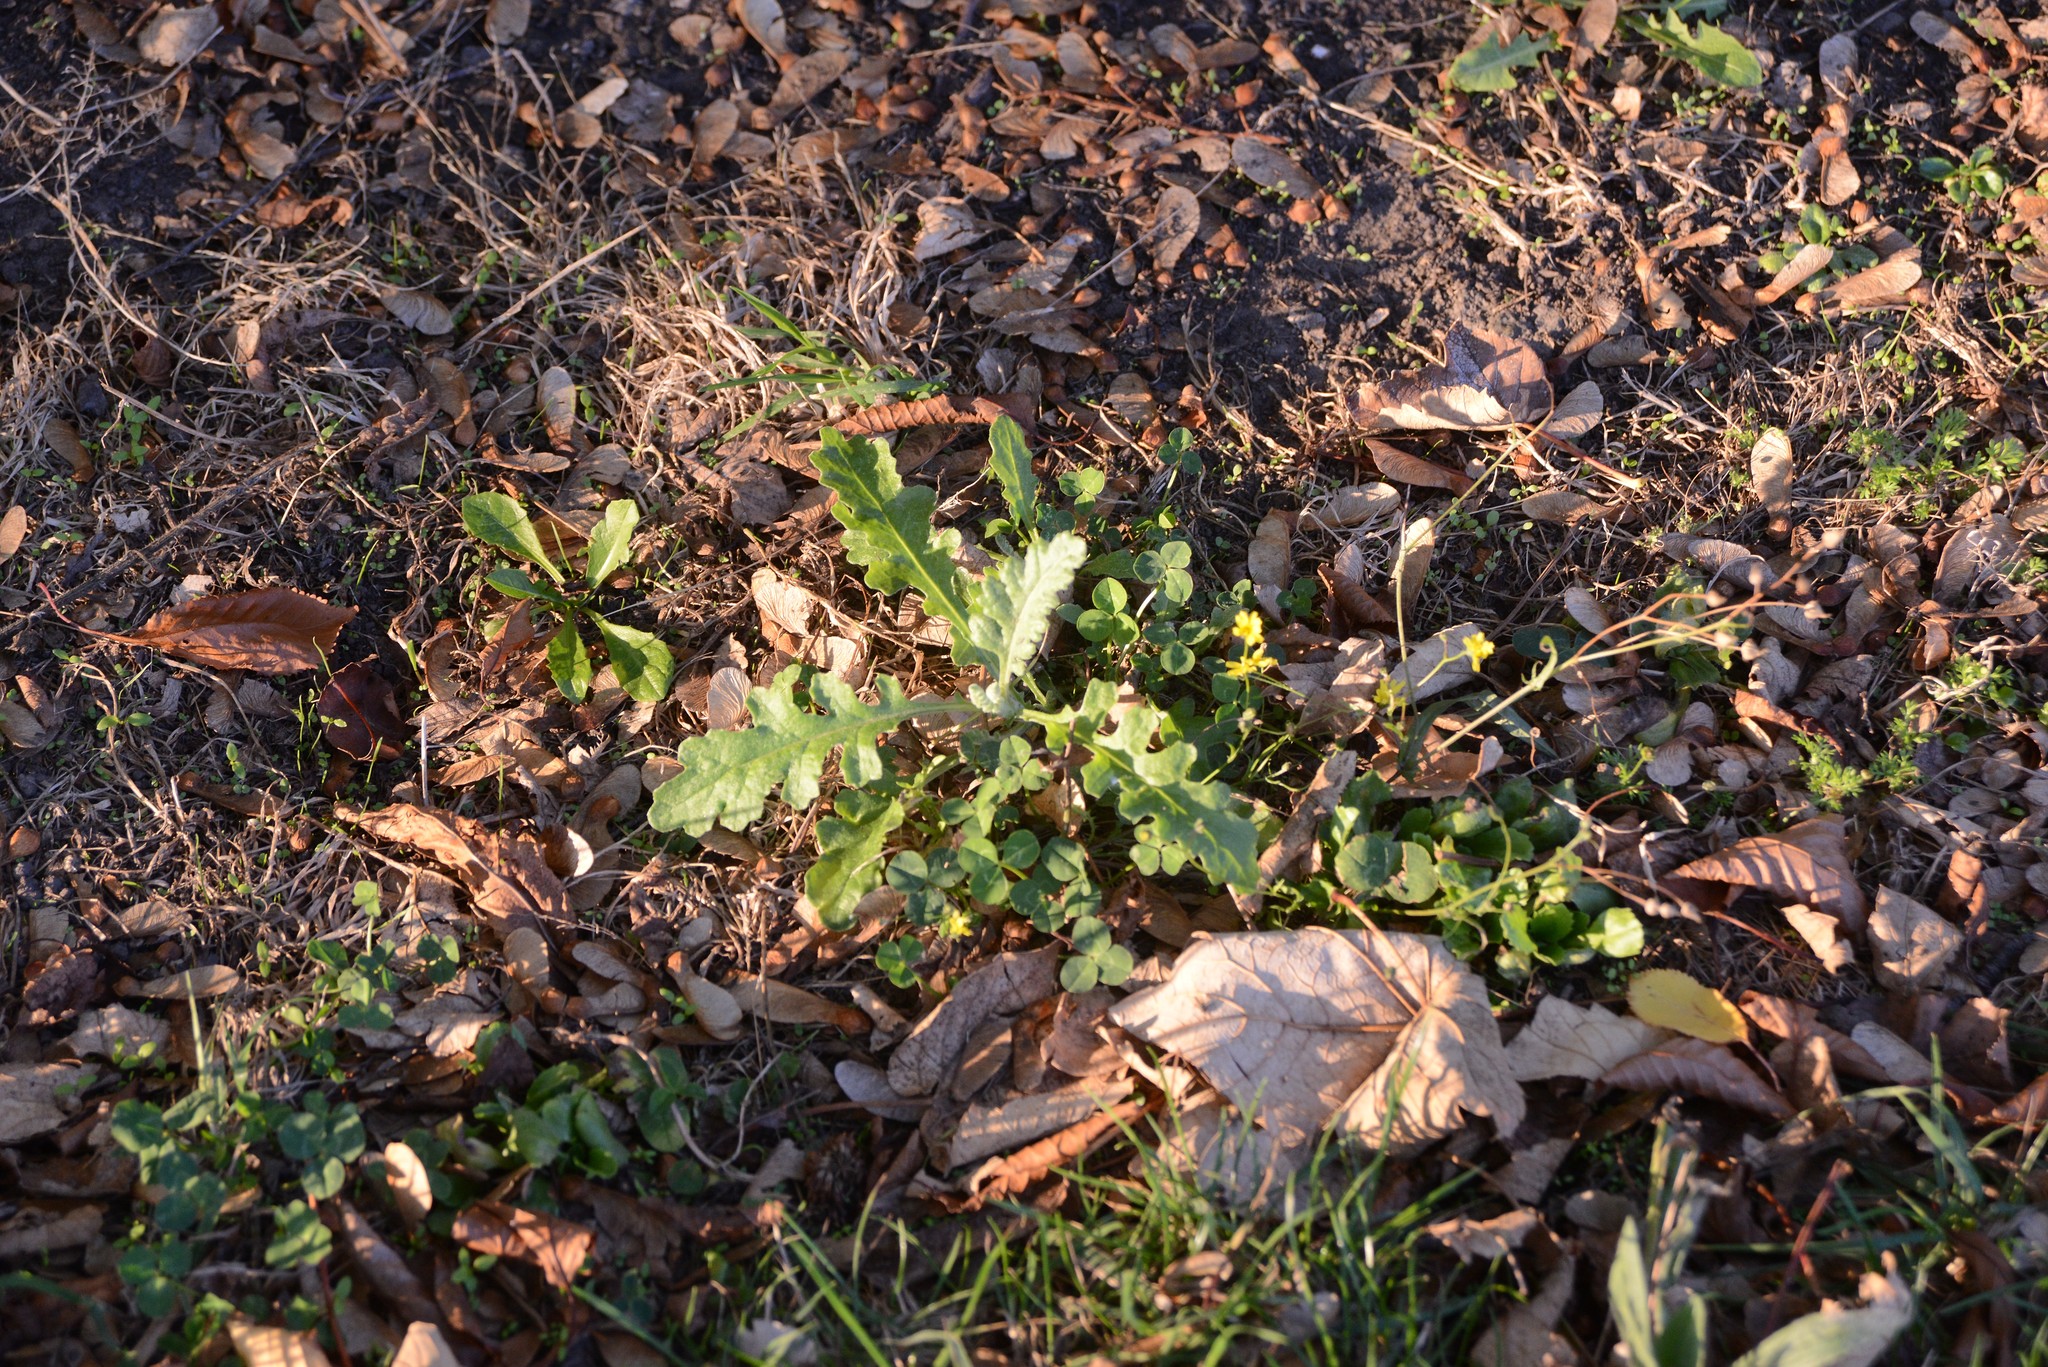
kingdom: Plantae
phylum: Tracheophyta
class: Magnoliopsida
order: Asterales
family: Asteraceae
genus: Senecio
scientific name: Senecio glomeratus
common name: Cutleaf burnweed
